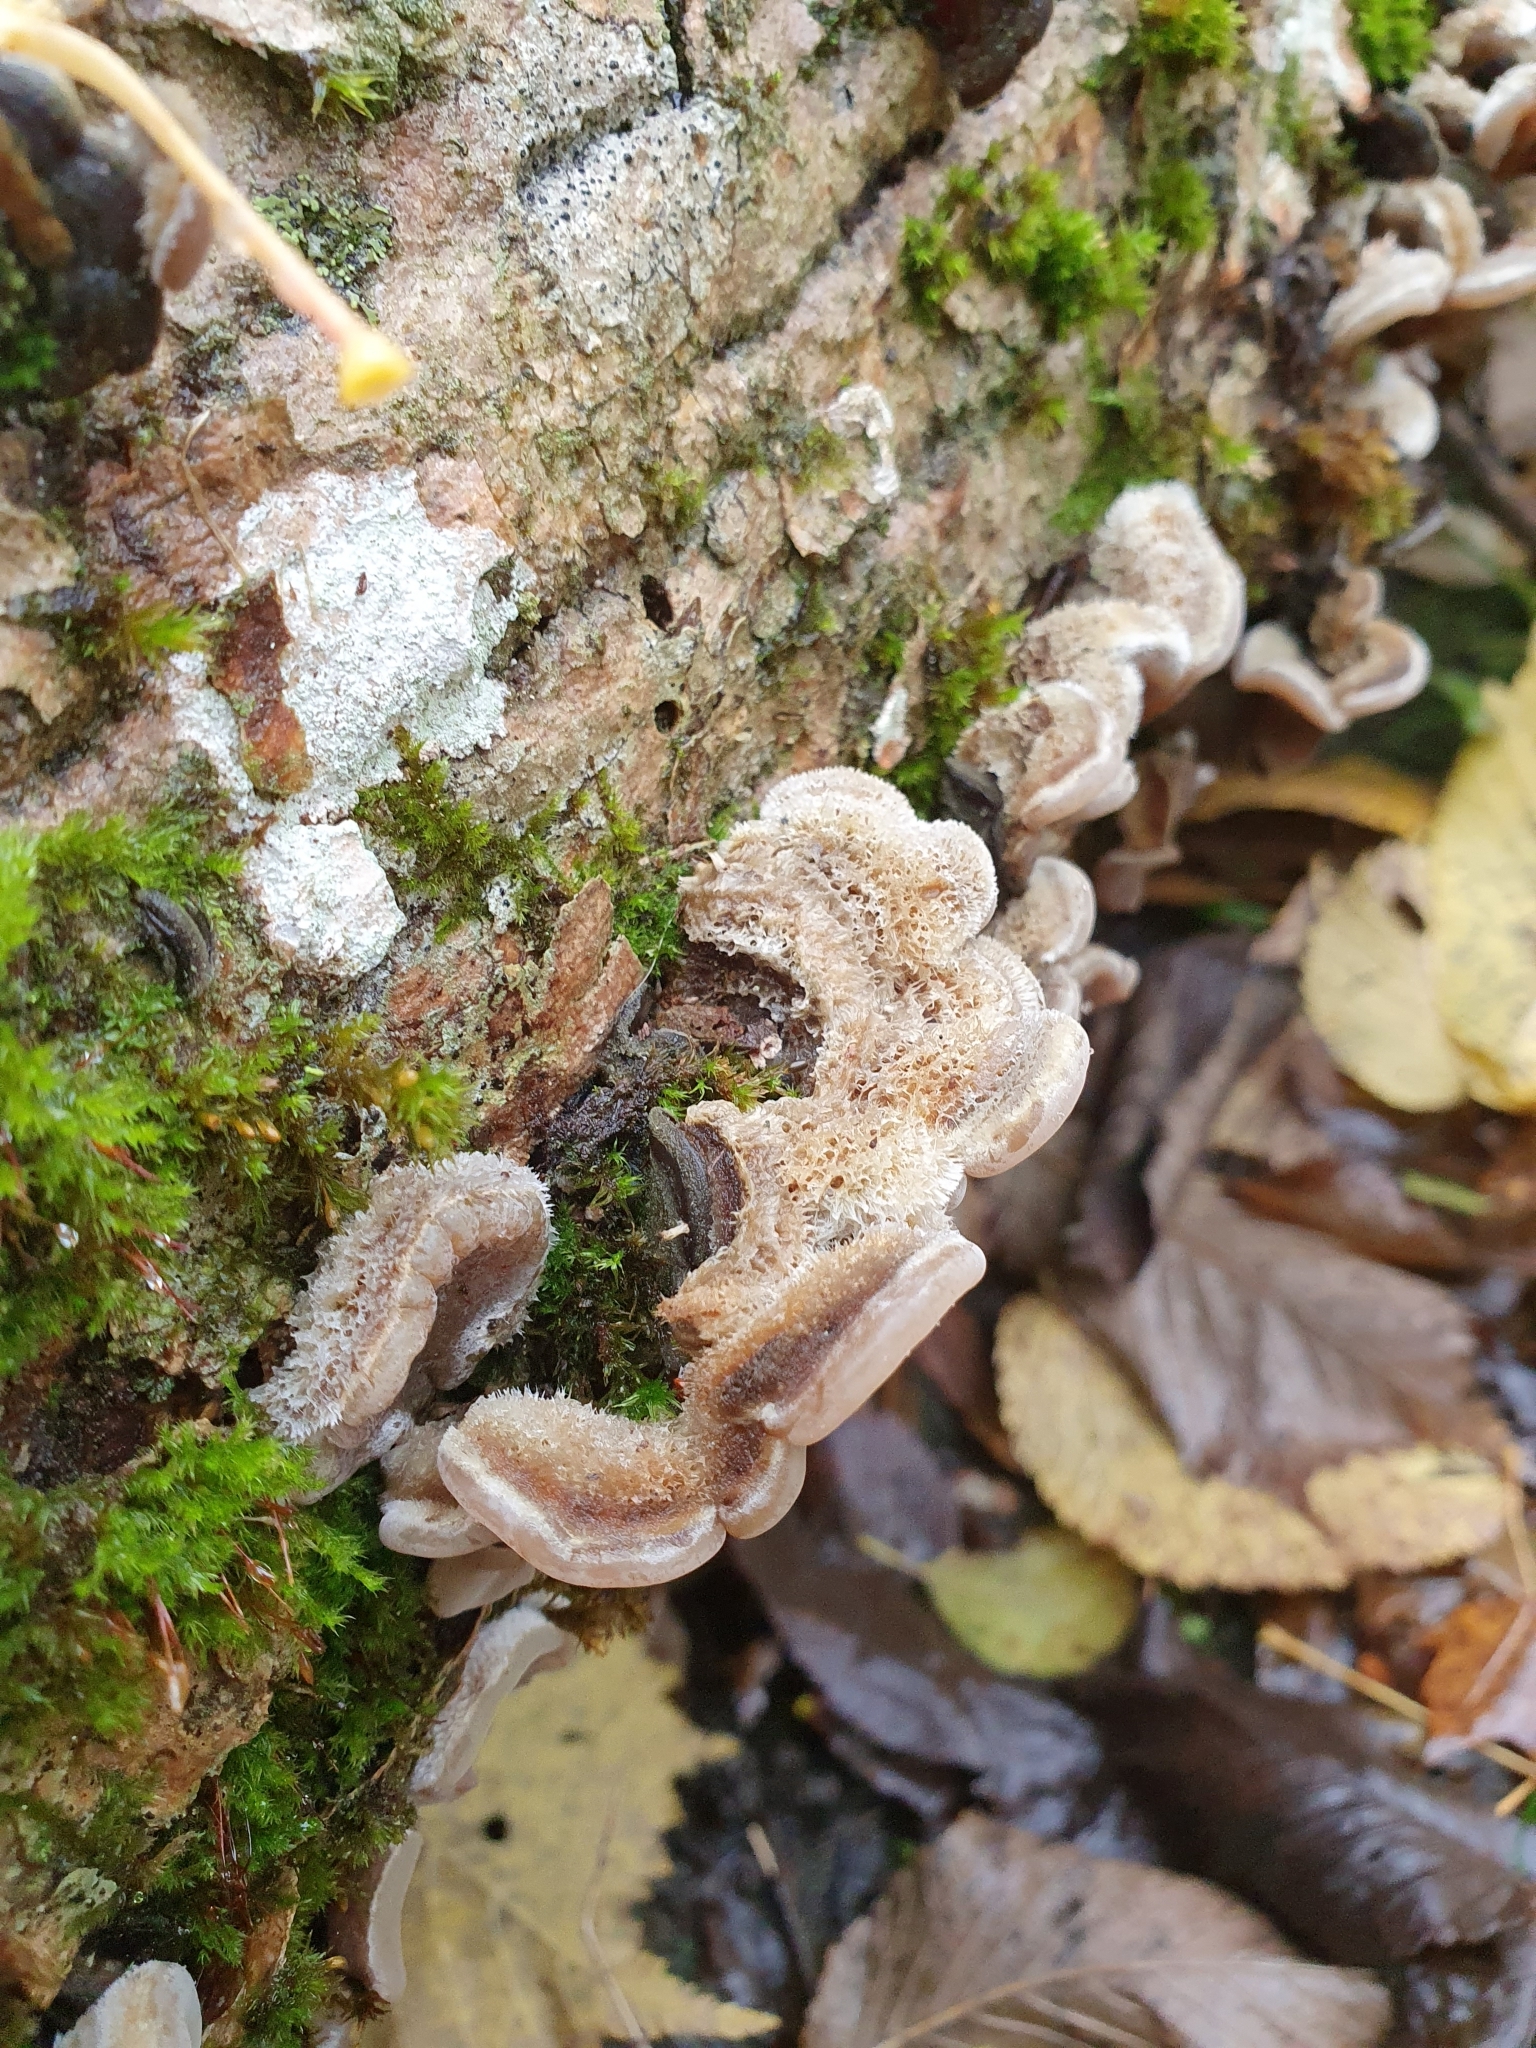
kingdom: Fungi
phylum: Basidiomycota
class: Agaricomycetes
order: Auriculariales
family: Auriculariaceae
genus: Auricularia
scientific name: Auricularia mesenterica
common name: Tripe fungus
